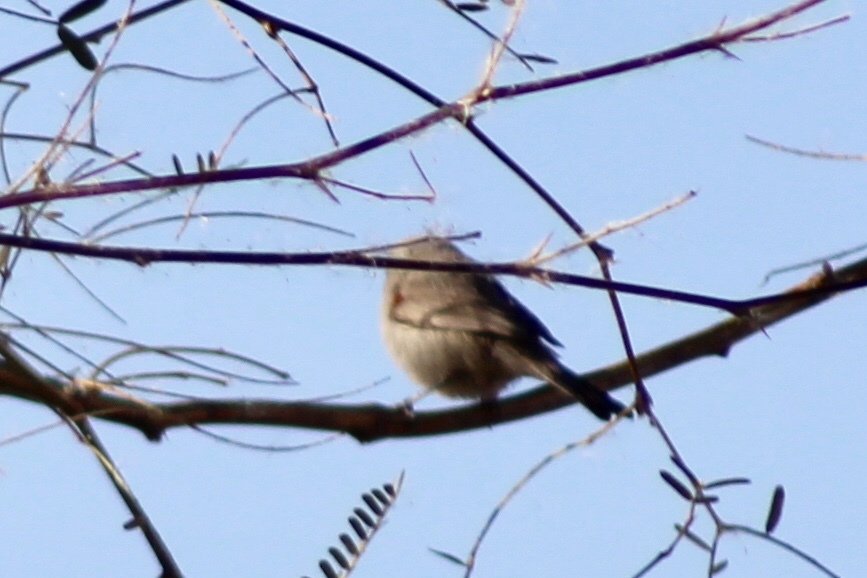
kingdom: Animalia
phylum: Chordata
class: Aves
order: Passeriformes
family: Remizidae
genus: Auriparus
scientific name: Auriparus flaviceps
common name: Verdin
